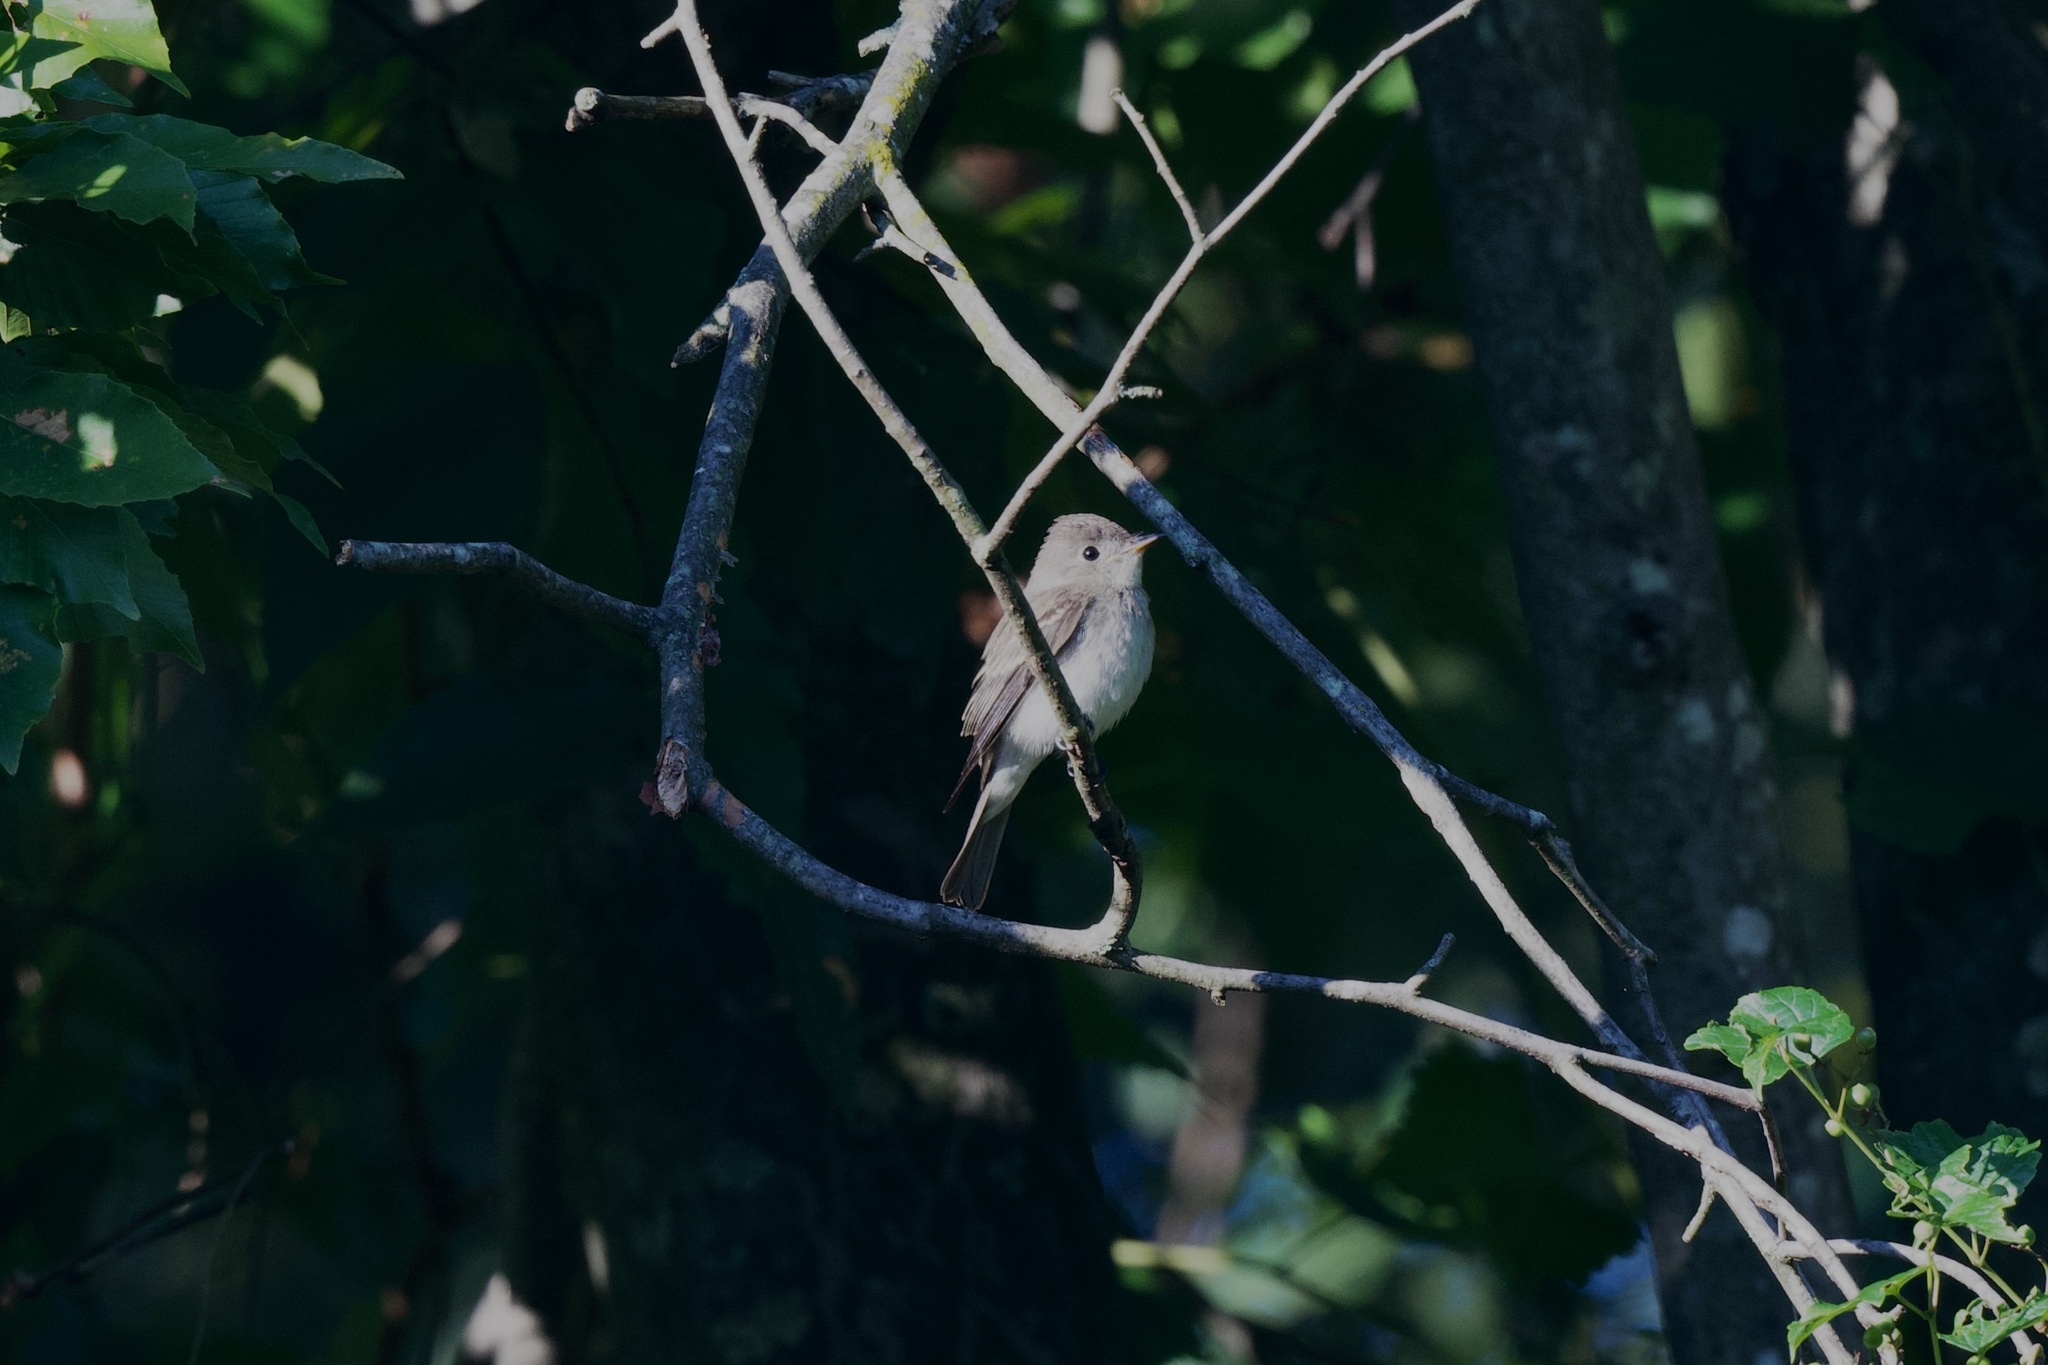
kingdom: Animalia
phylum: Chordata
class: Aves
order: Passeriformes
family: Tyrannidae
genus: Contopus
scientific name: Contopus virens
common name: Eastern wood-pewee
